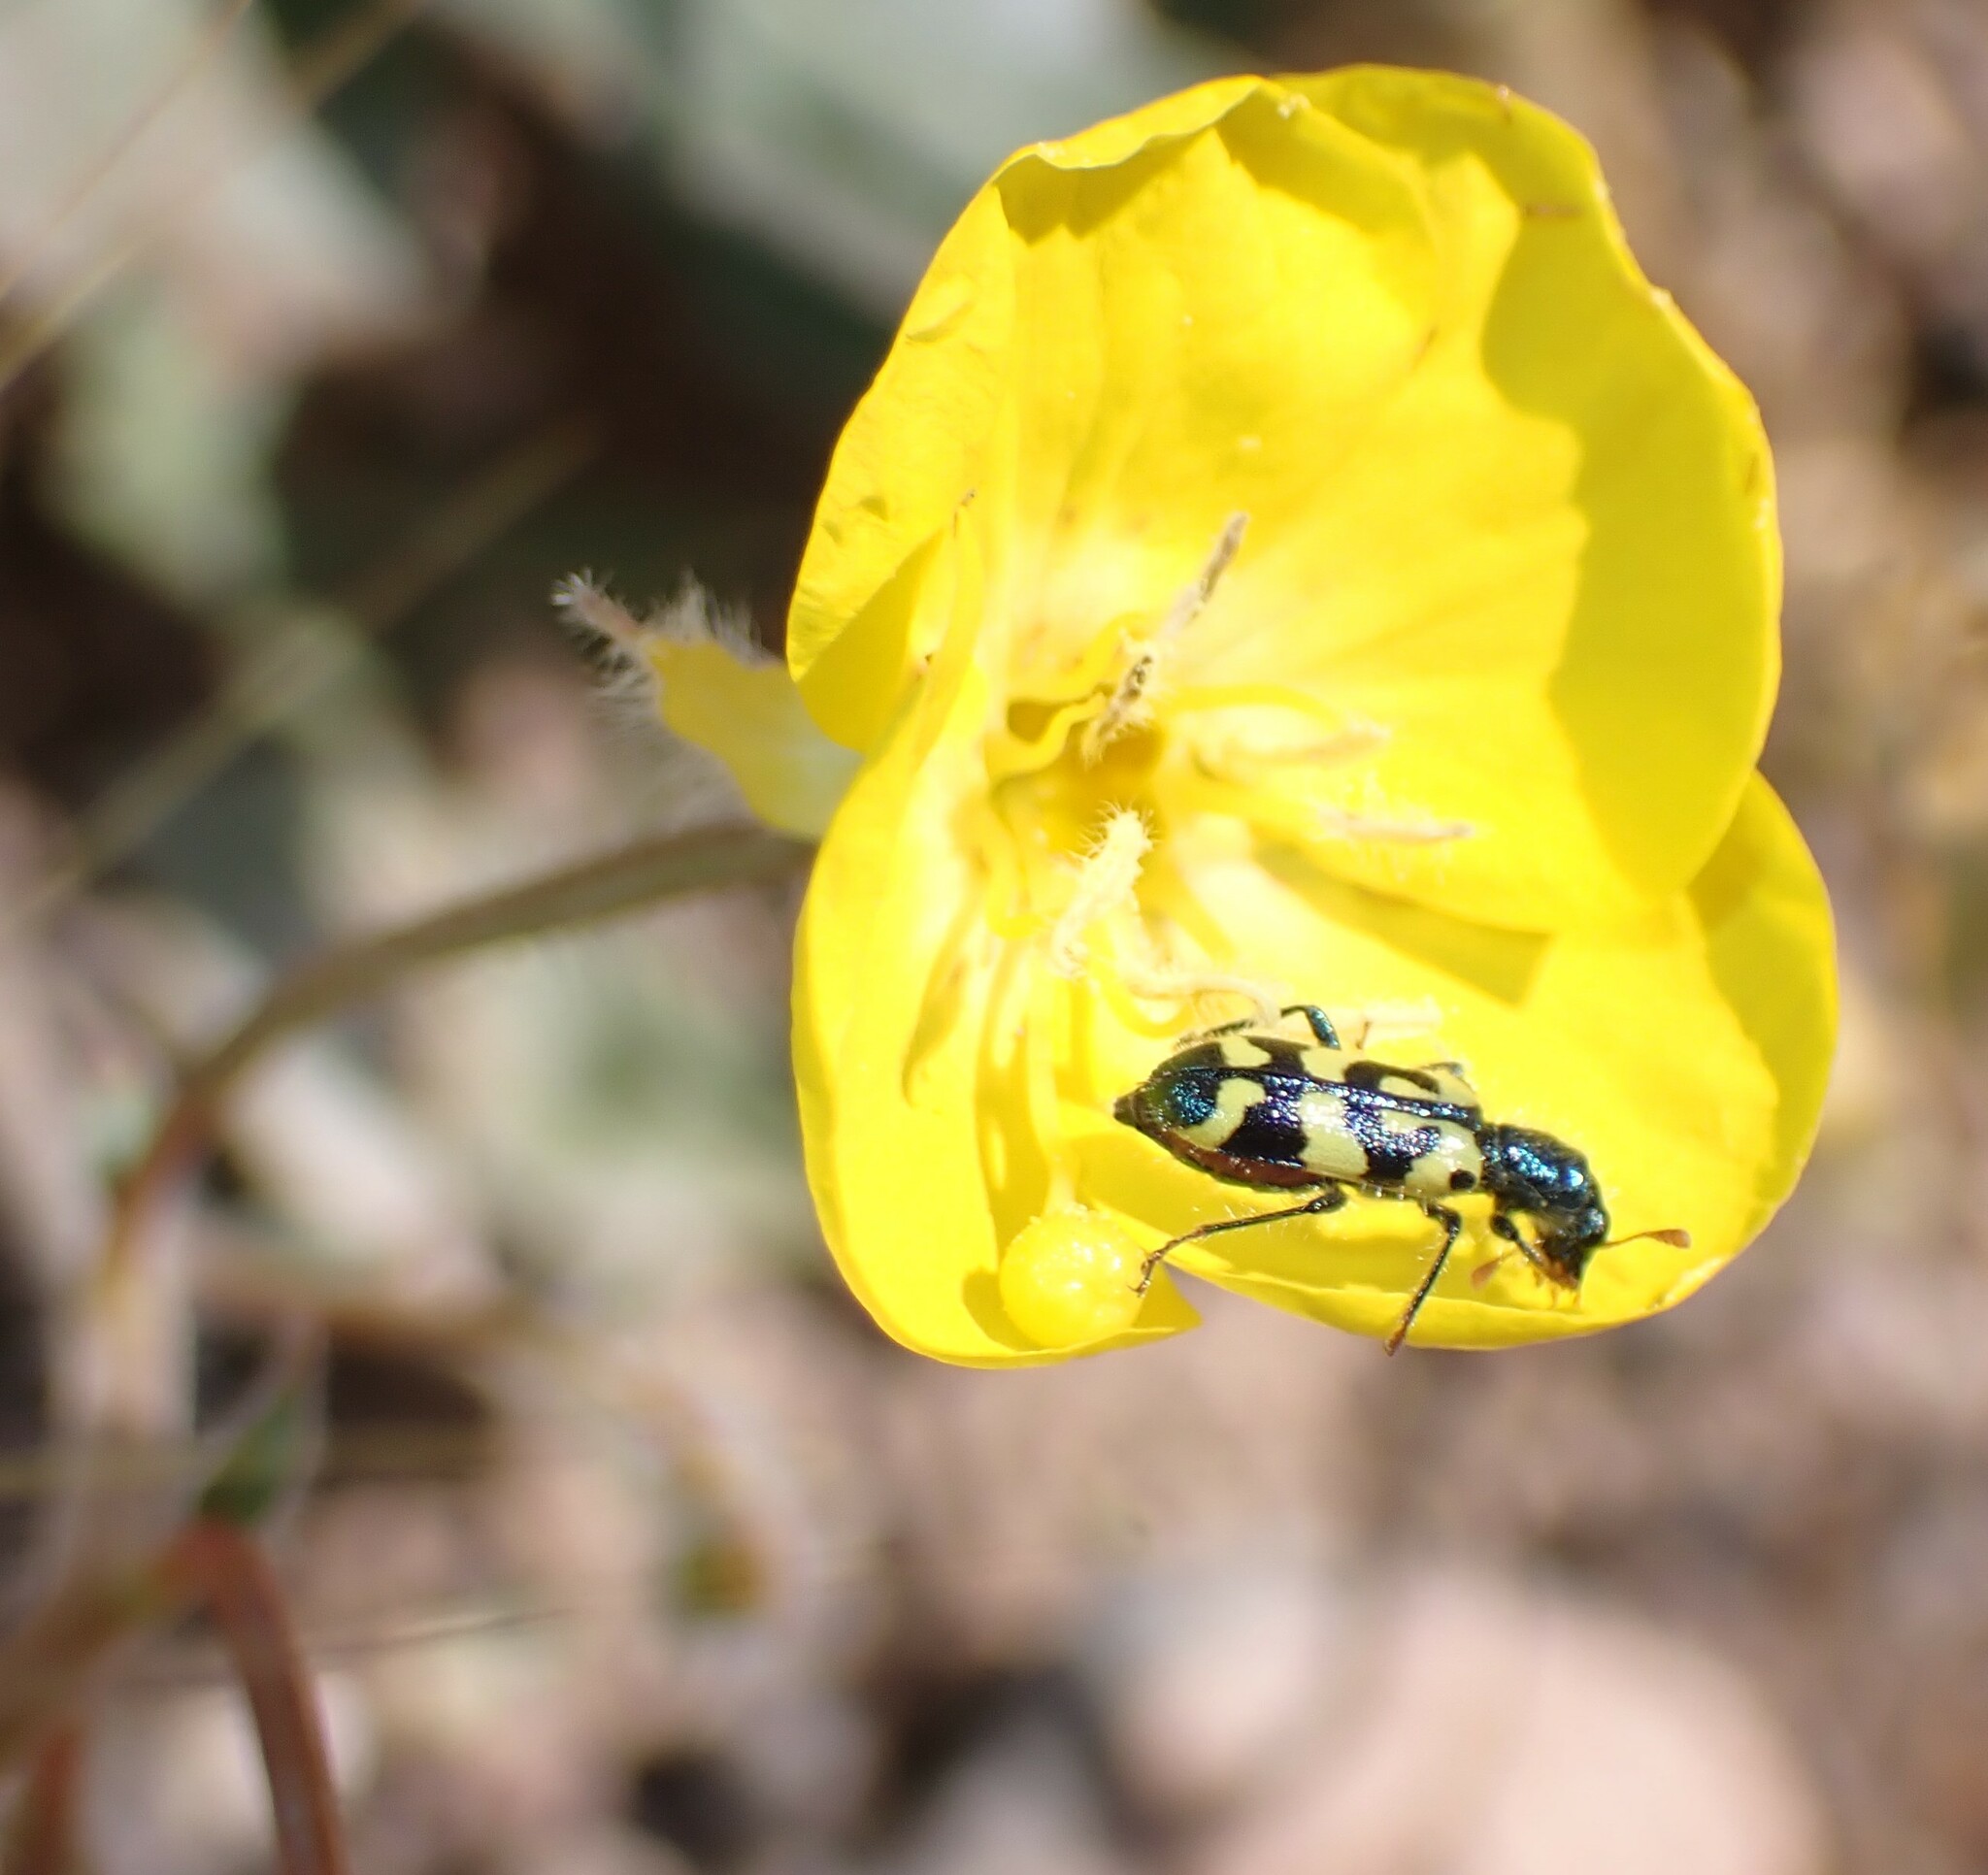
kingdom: Animalia
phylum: Arthropoda
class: Insecta
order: Coleoptera
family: Cleridae
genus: Trichodes
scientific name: Trichodes ornatus
